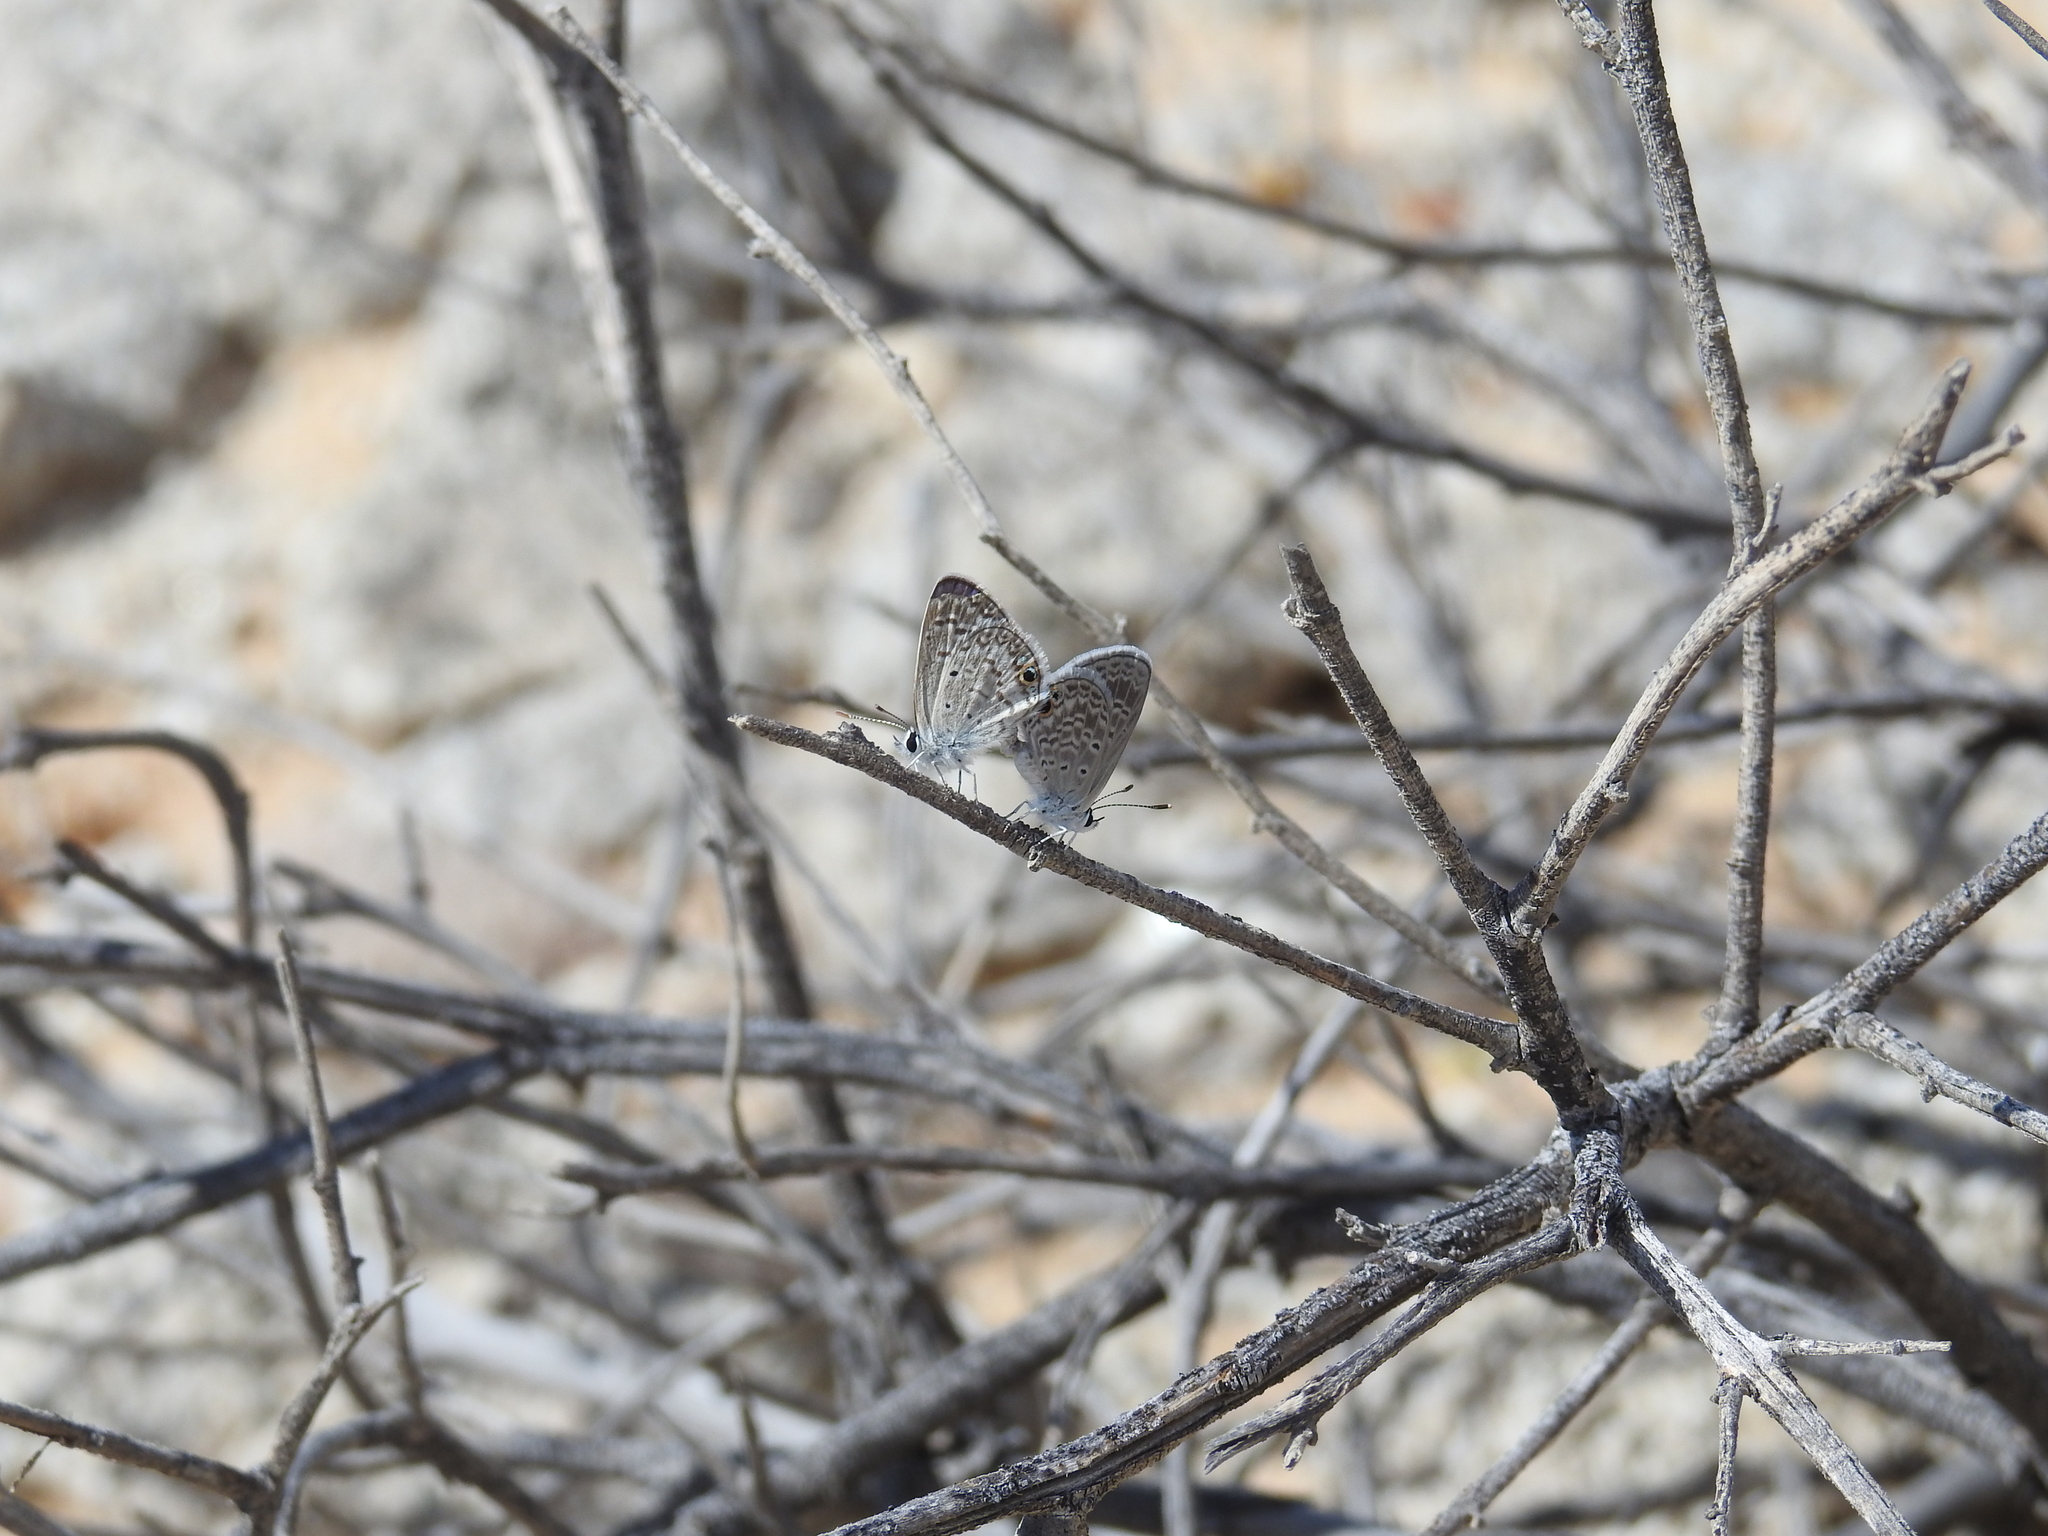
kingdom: Animalia
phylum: Arthropoda
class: Insecta
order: Lepidoptera
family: Lycaenidae
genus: Hemiargus
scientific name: Hemiargus ceraunus
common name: Ceraunus blue
